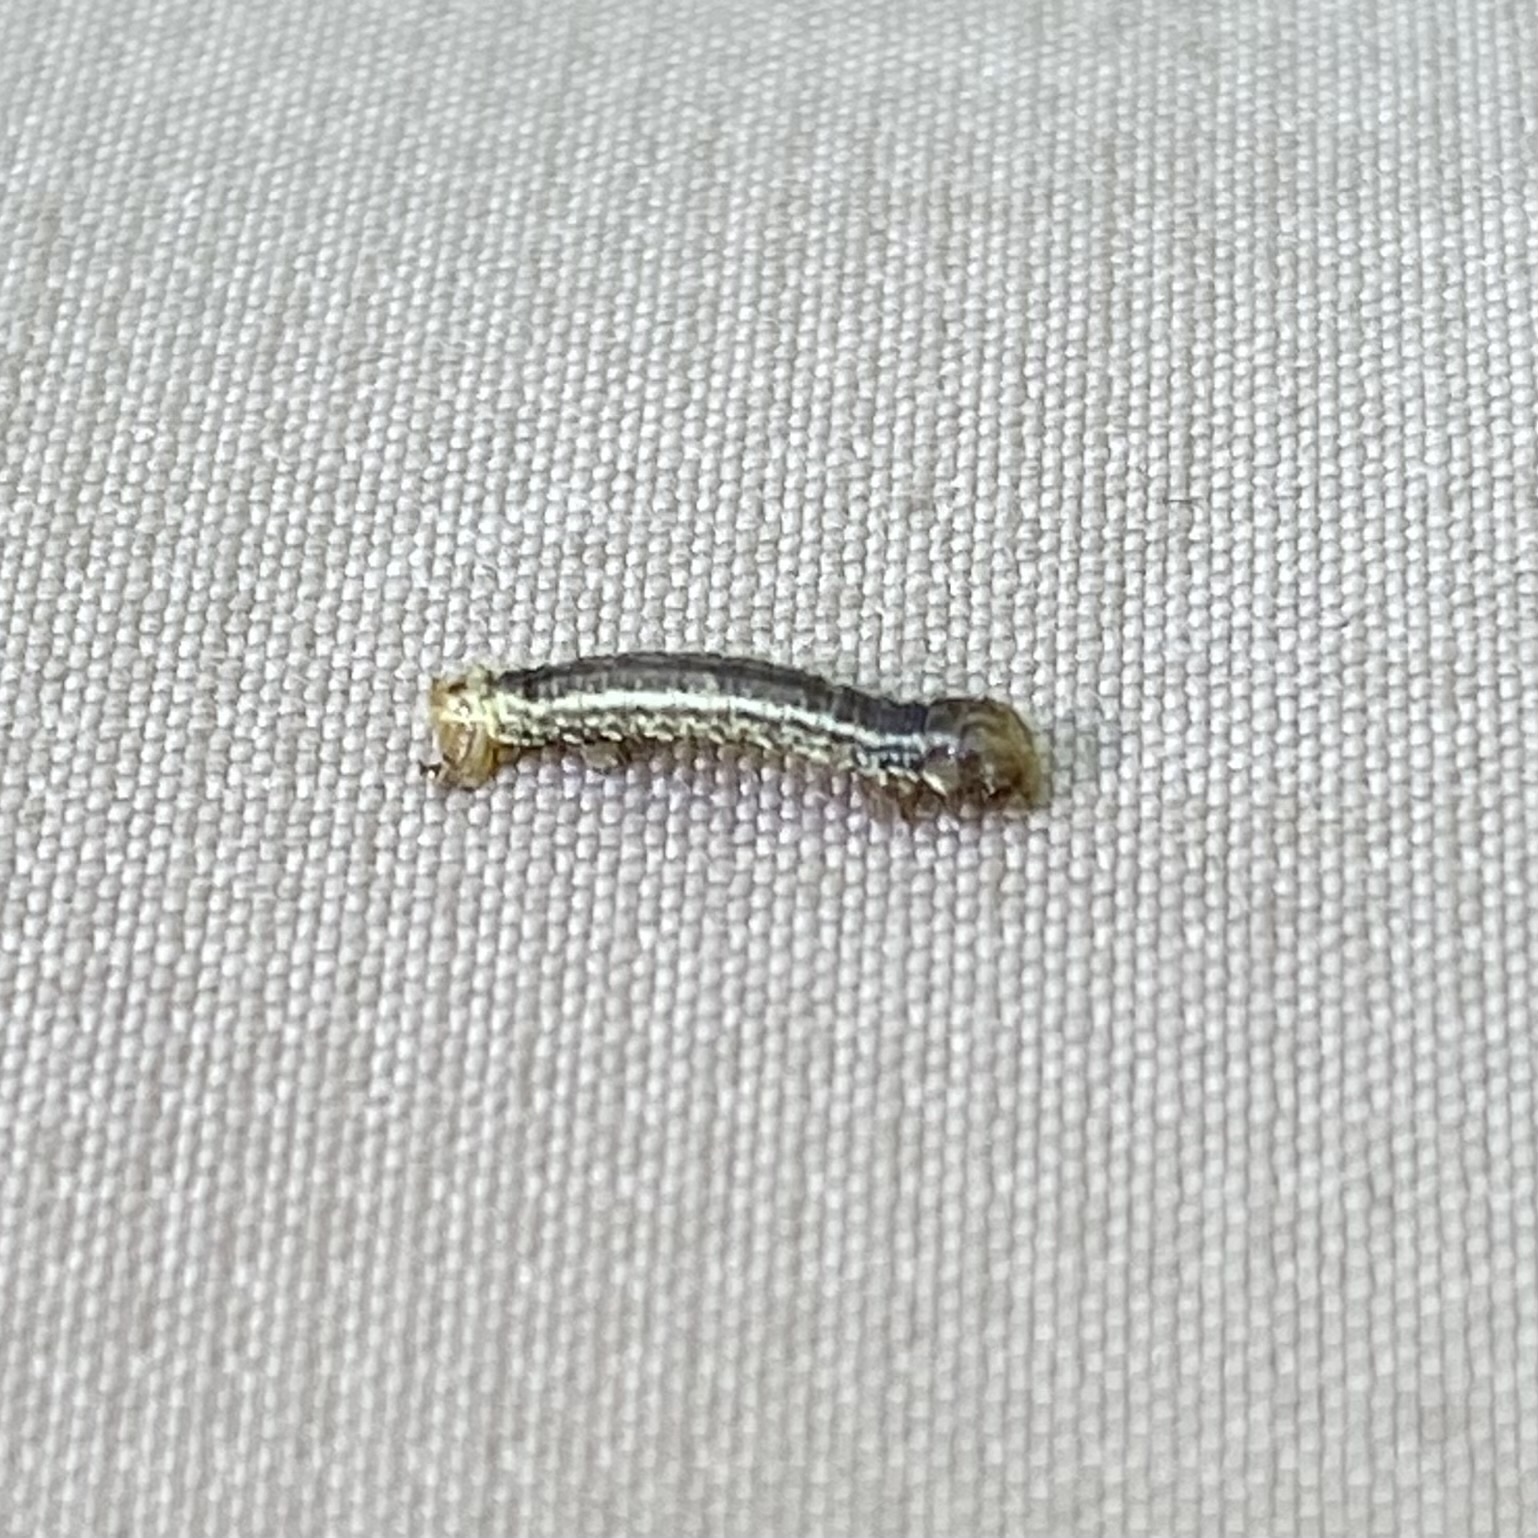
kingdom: Animalia
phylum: Arthropoda
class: Insecta
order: Lepidoptera
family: Geometridae
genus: Operophtera
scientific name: Operophtera fagata
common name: Northern winter moth
